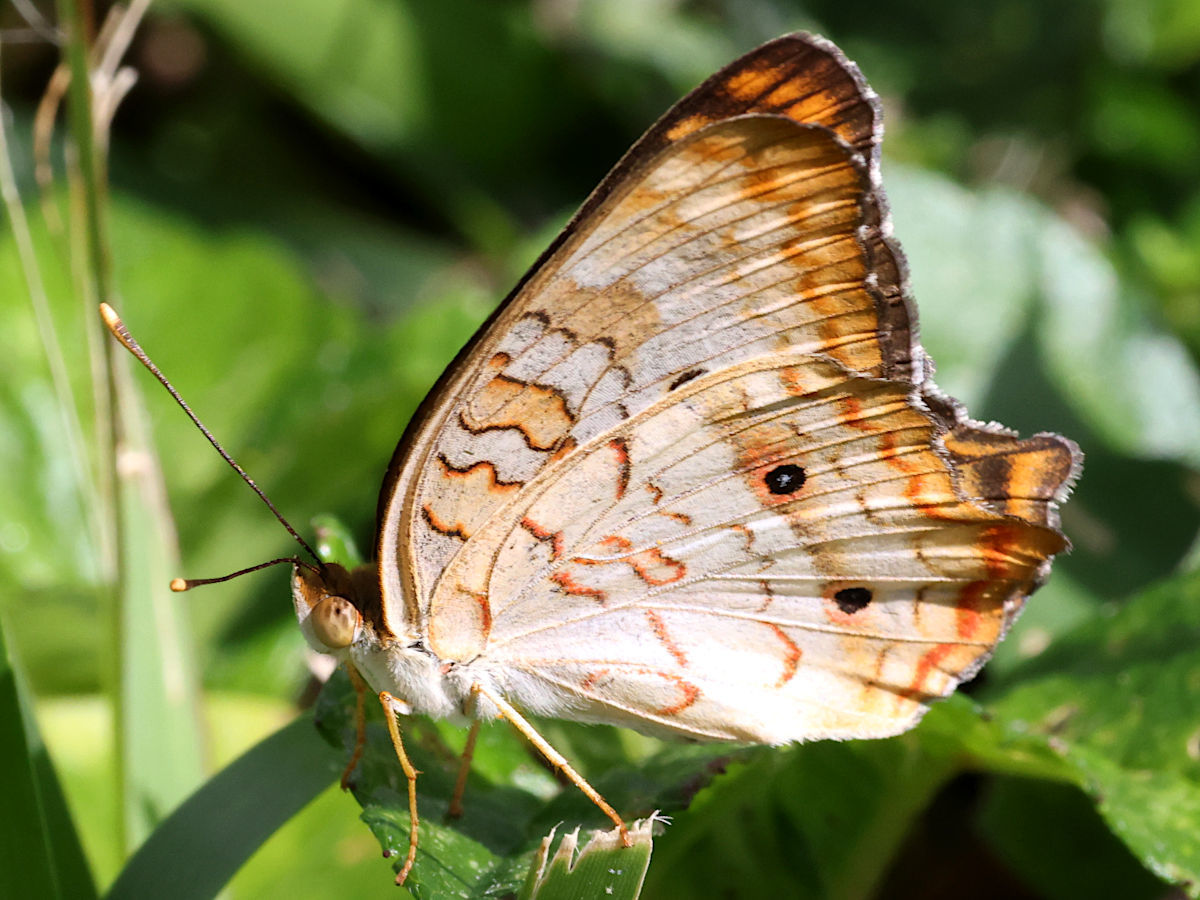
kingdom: Animalia
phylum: Arthropoda
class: Insecta
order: Lepidoptera
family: Nymphalidae
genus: Anartia
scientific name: Anartia jatrophae
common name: White peacock
